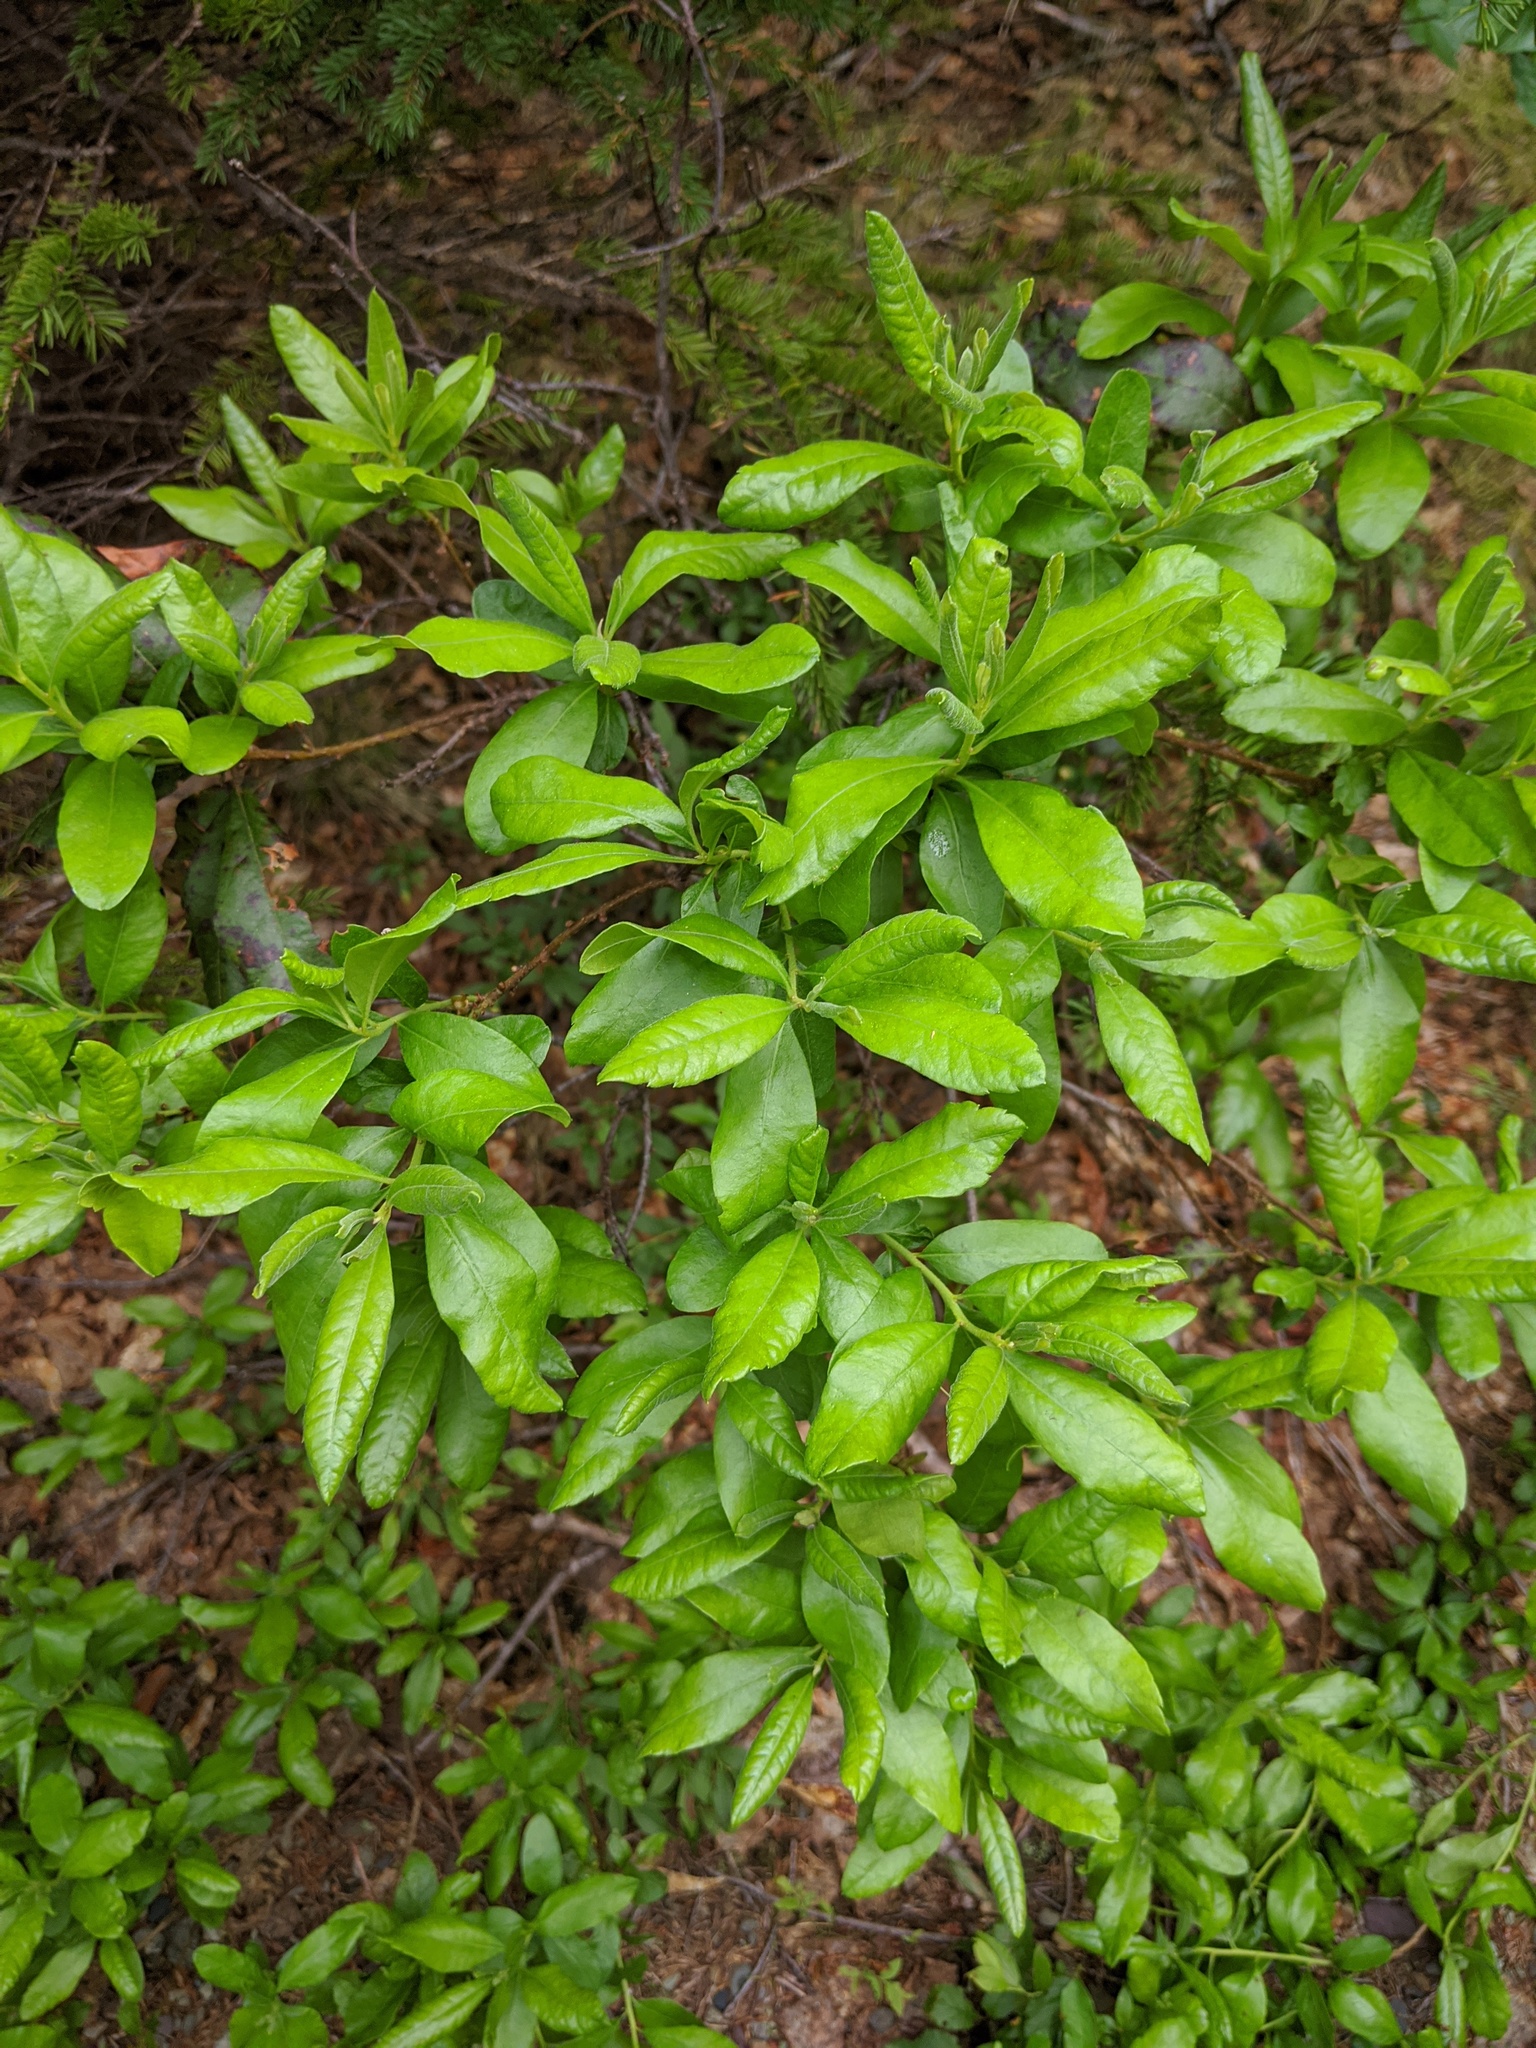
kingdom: Plantae
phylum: Tracheophyta
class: Magnoliopsida
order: Fagales
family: Myricaceae
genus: Morella
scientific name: Morella pensylvanica
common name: Northern bayberry
